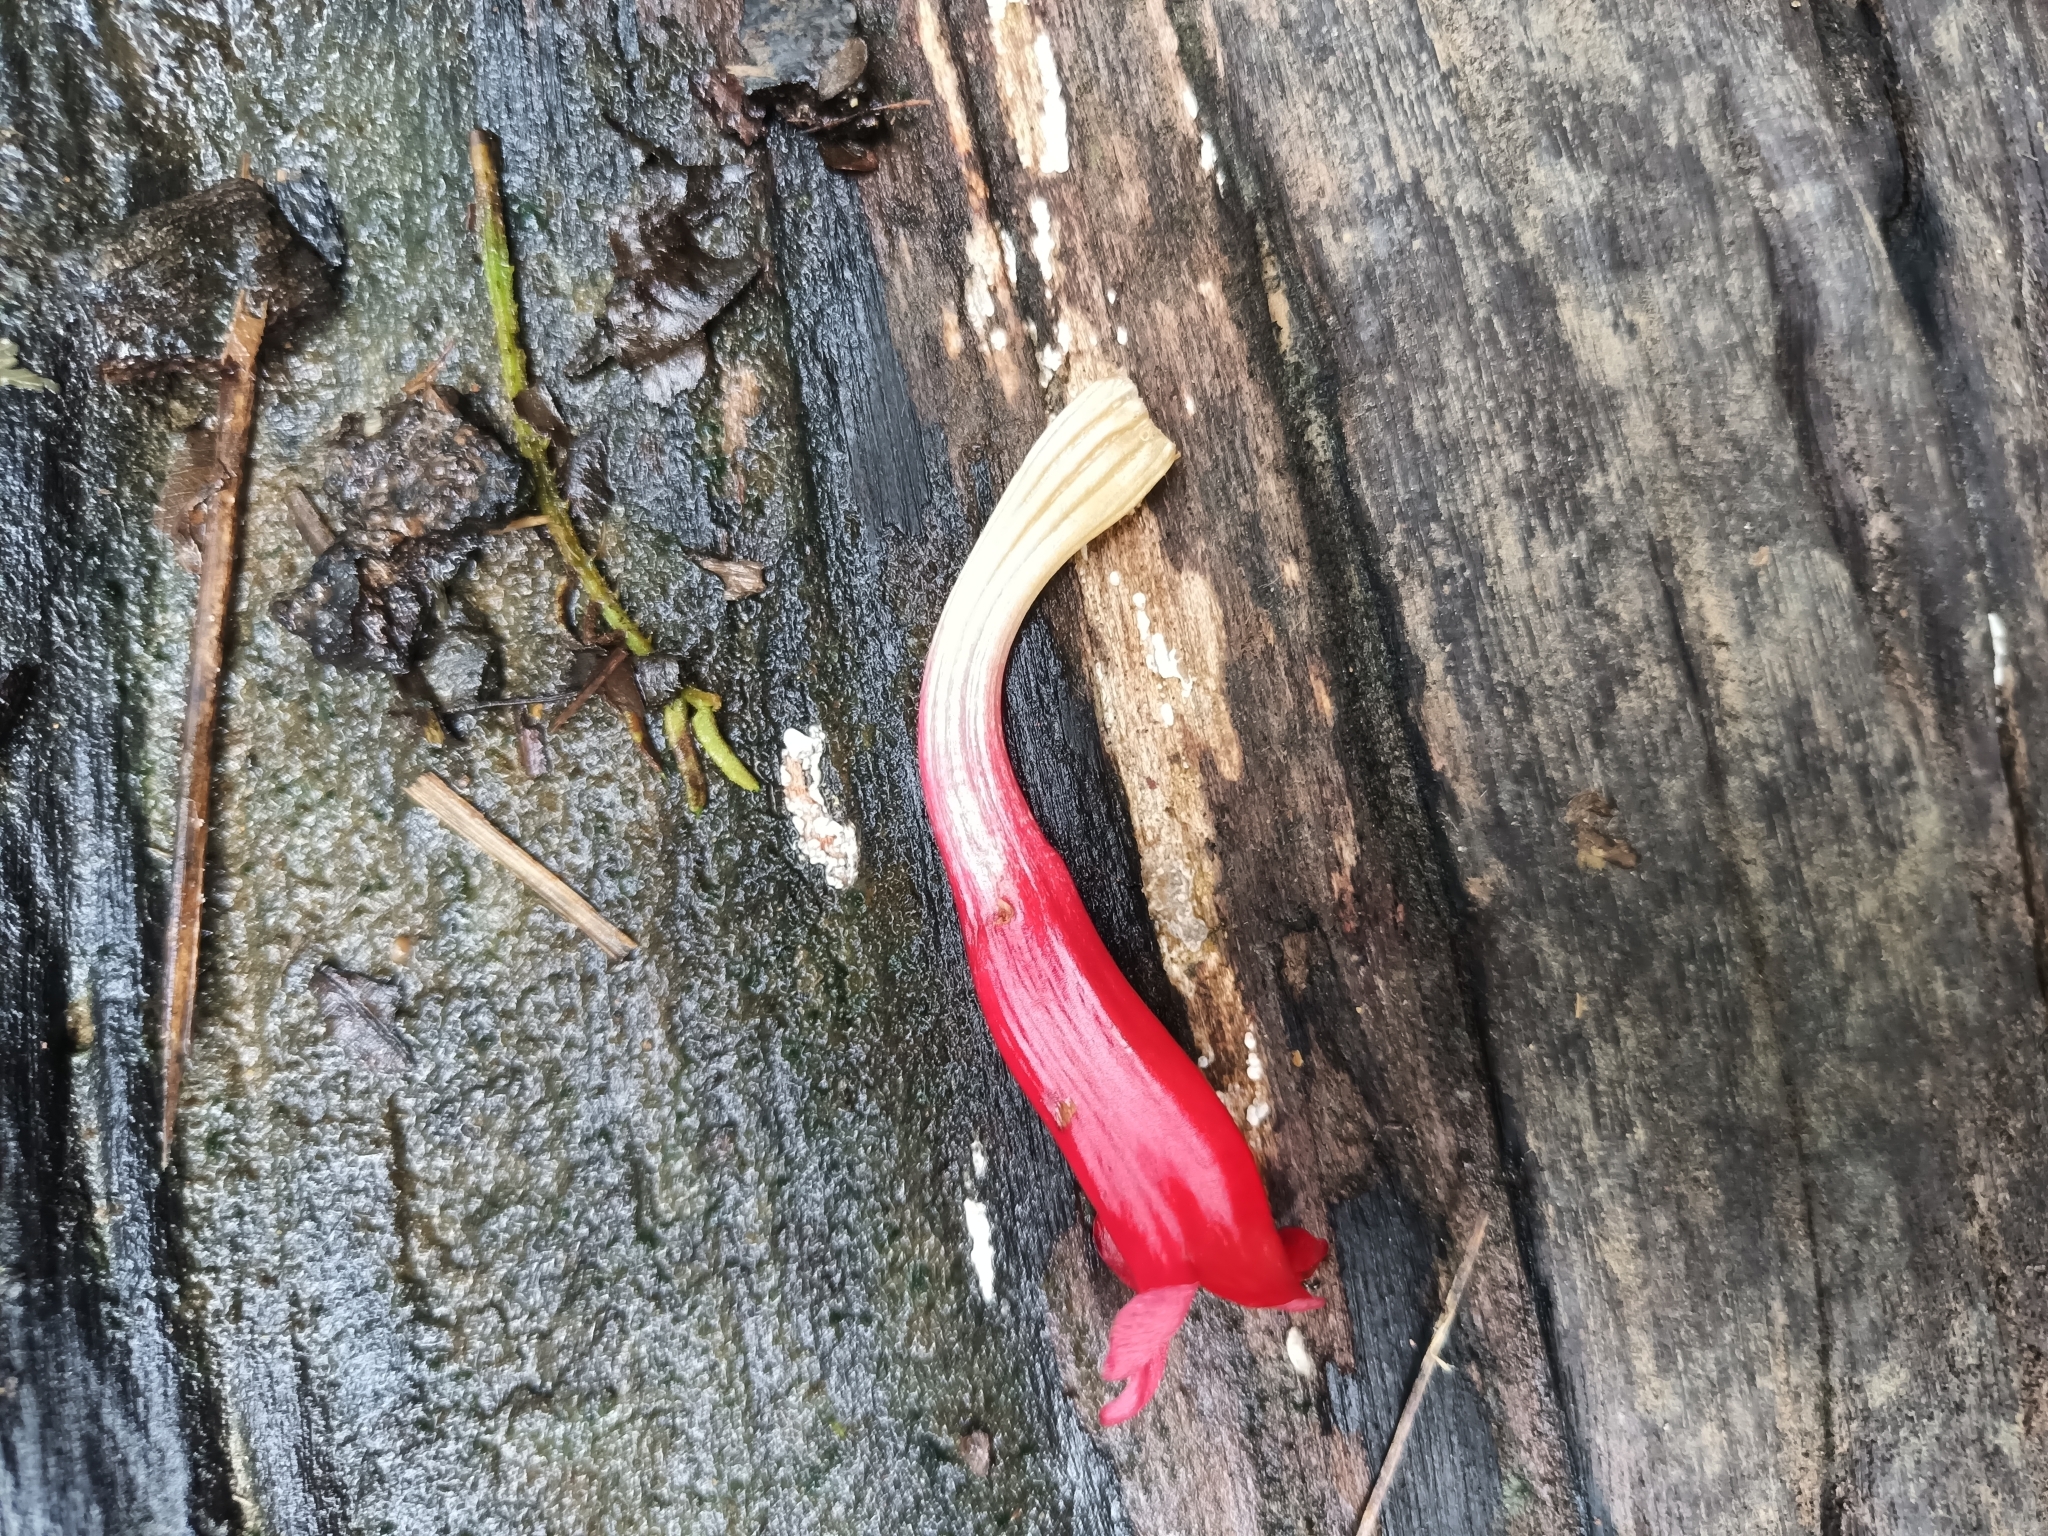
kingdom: Plantae
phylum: Tracheophyta
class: Magnoliopsida
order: Lamiales
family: Acanthaceae
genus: Mendoncia
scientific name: Mendoncia hoffmannseggiana
